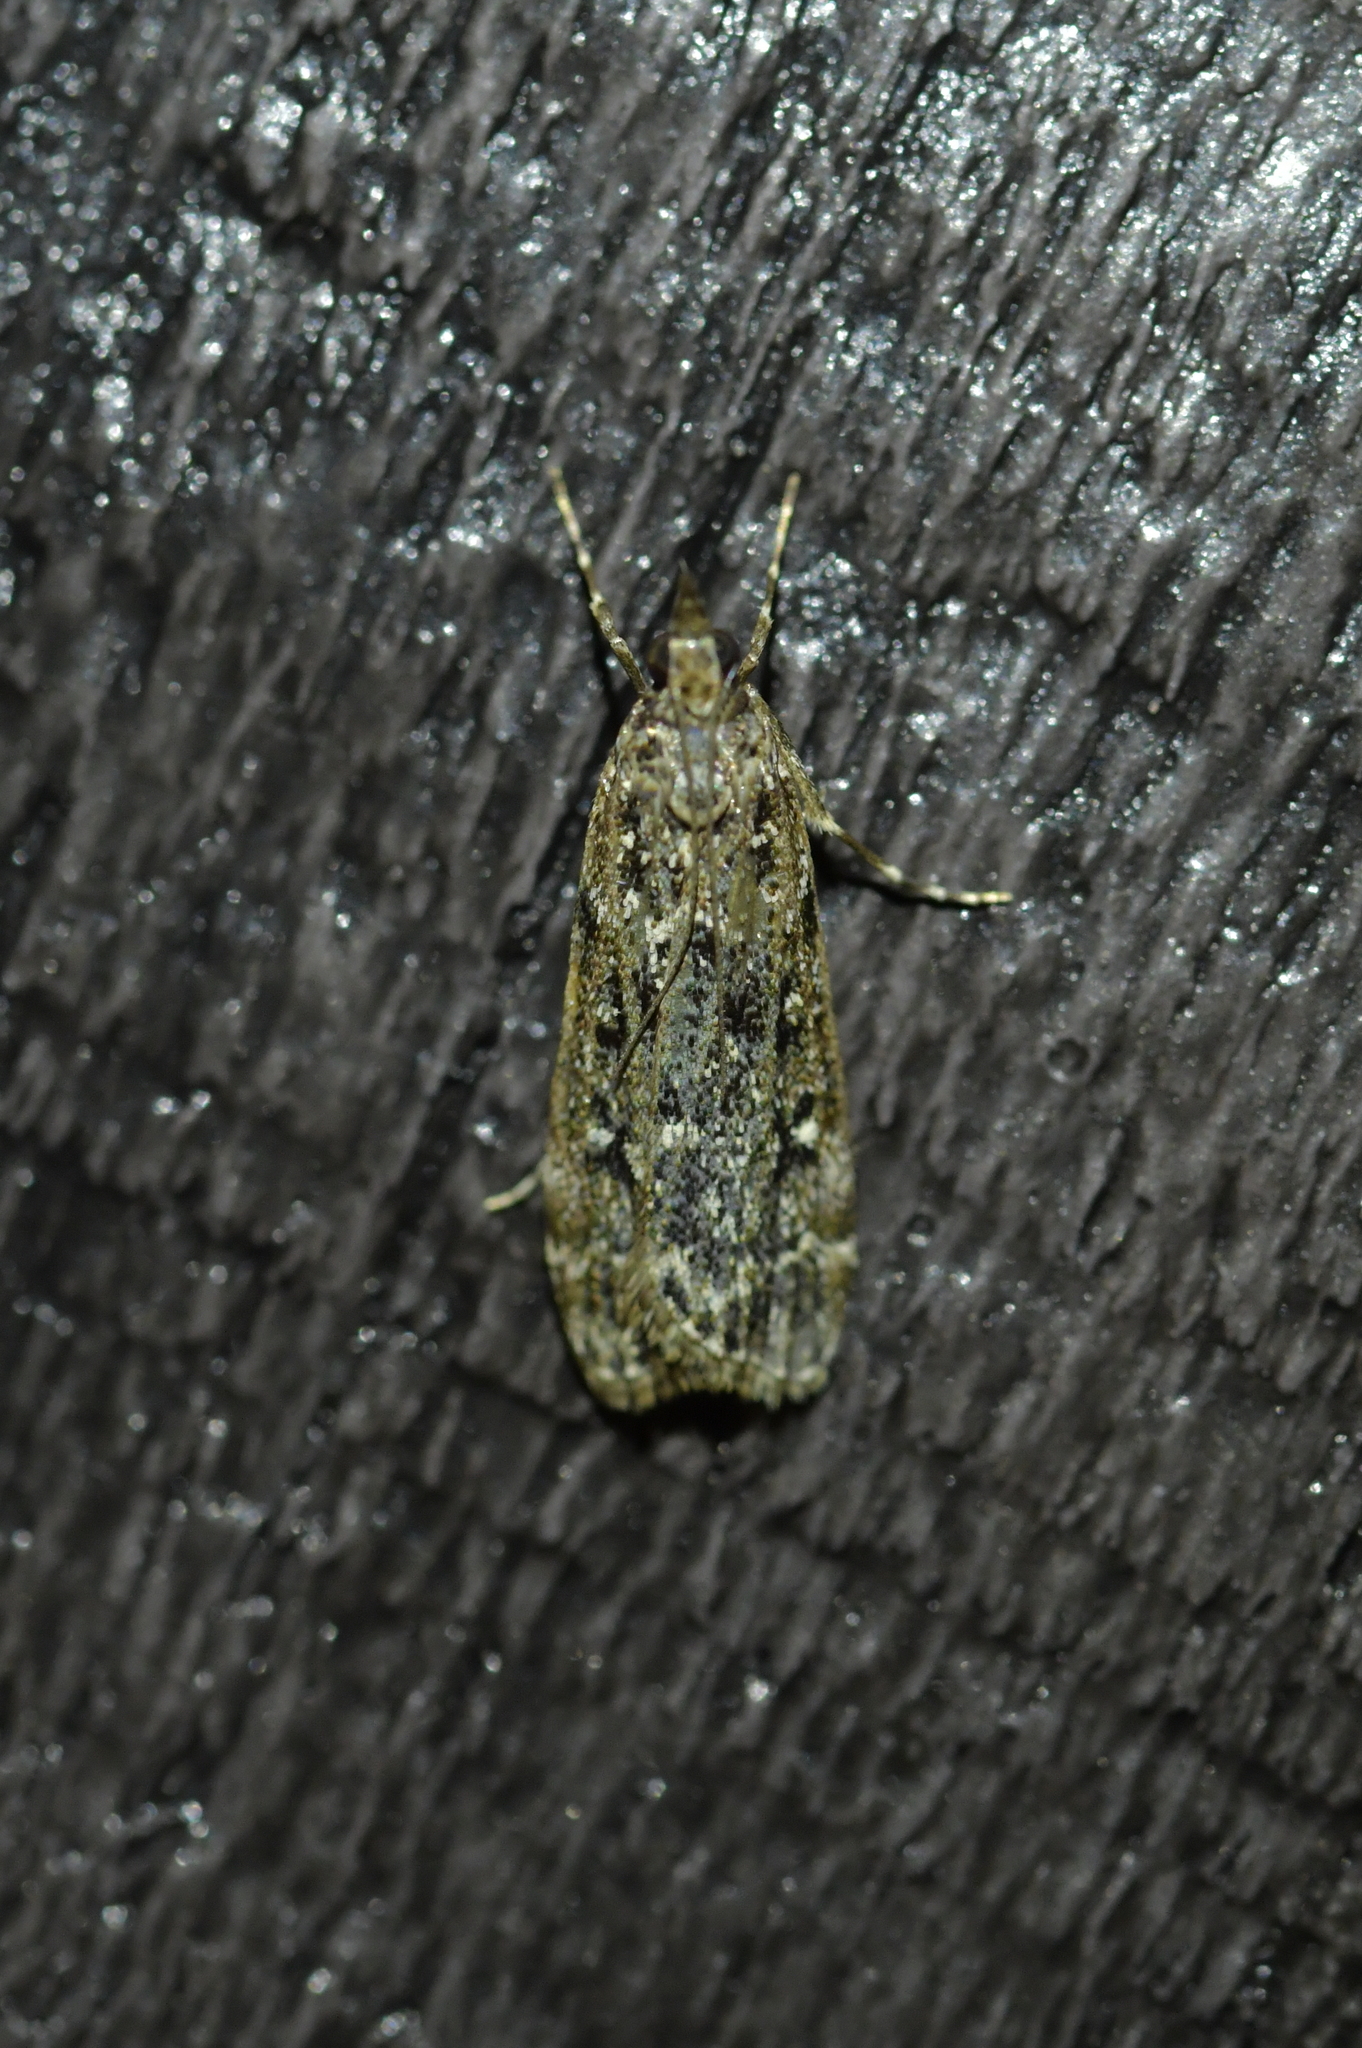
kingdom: Animalia
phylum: Arthropoda
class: Insecta
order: Lepidoptera
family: Crambidae
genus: Eudonia
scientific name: Eudonia philerga
